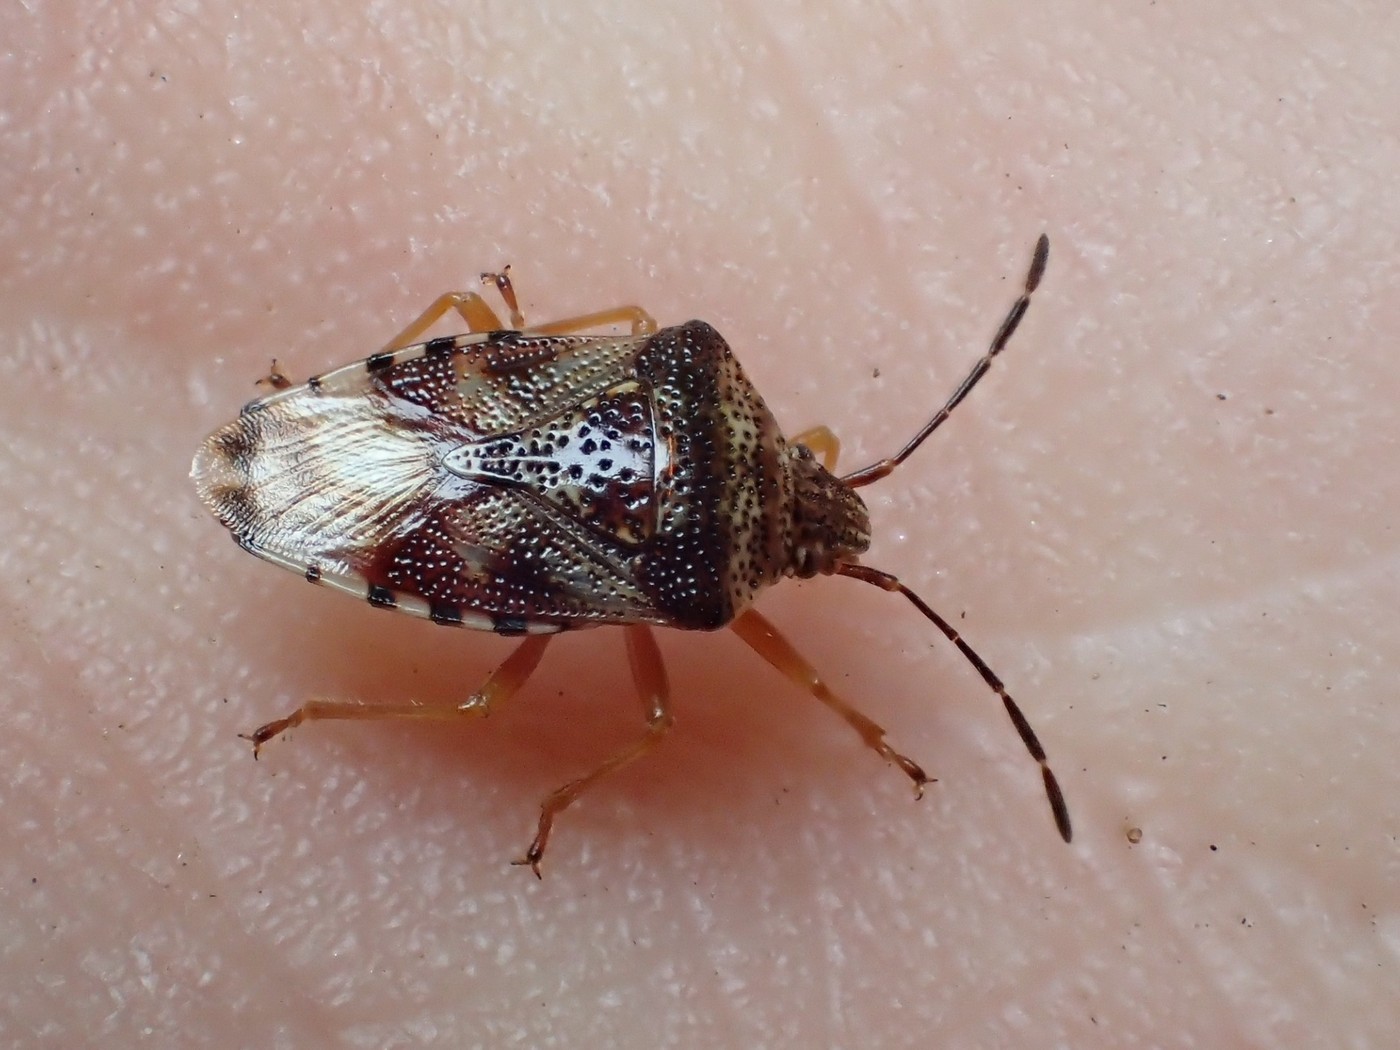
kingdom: Animalia
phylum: Arthropoda
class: Insecta
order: Hemiptera
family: Acanthosomatidae
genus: Elasmucha
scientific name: Elasmucha lateralis
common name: Shield bug
